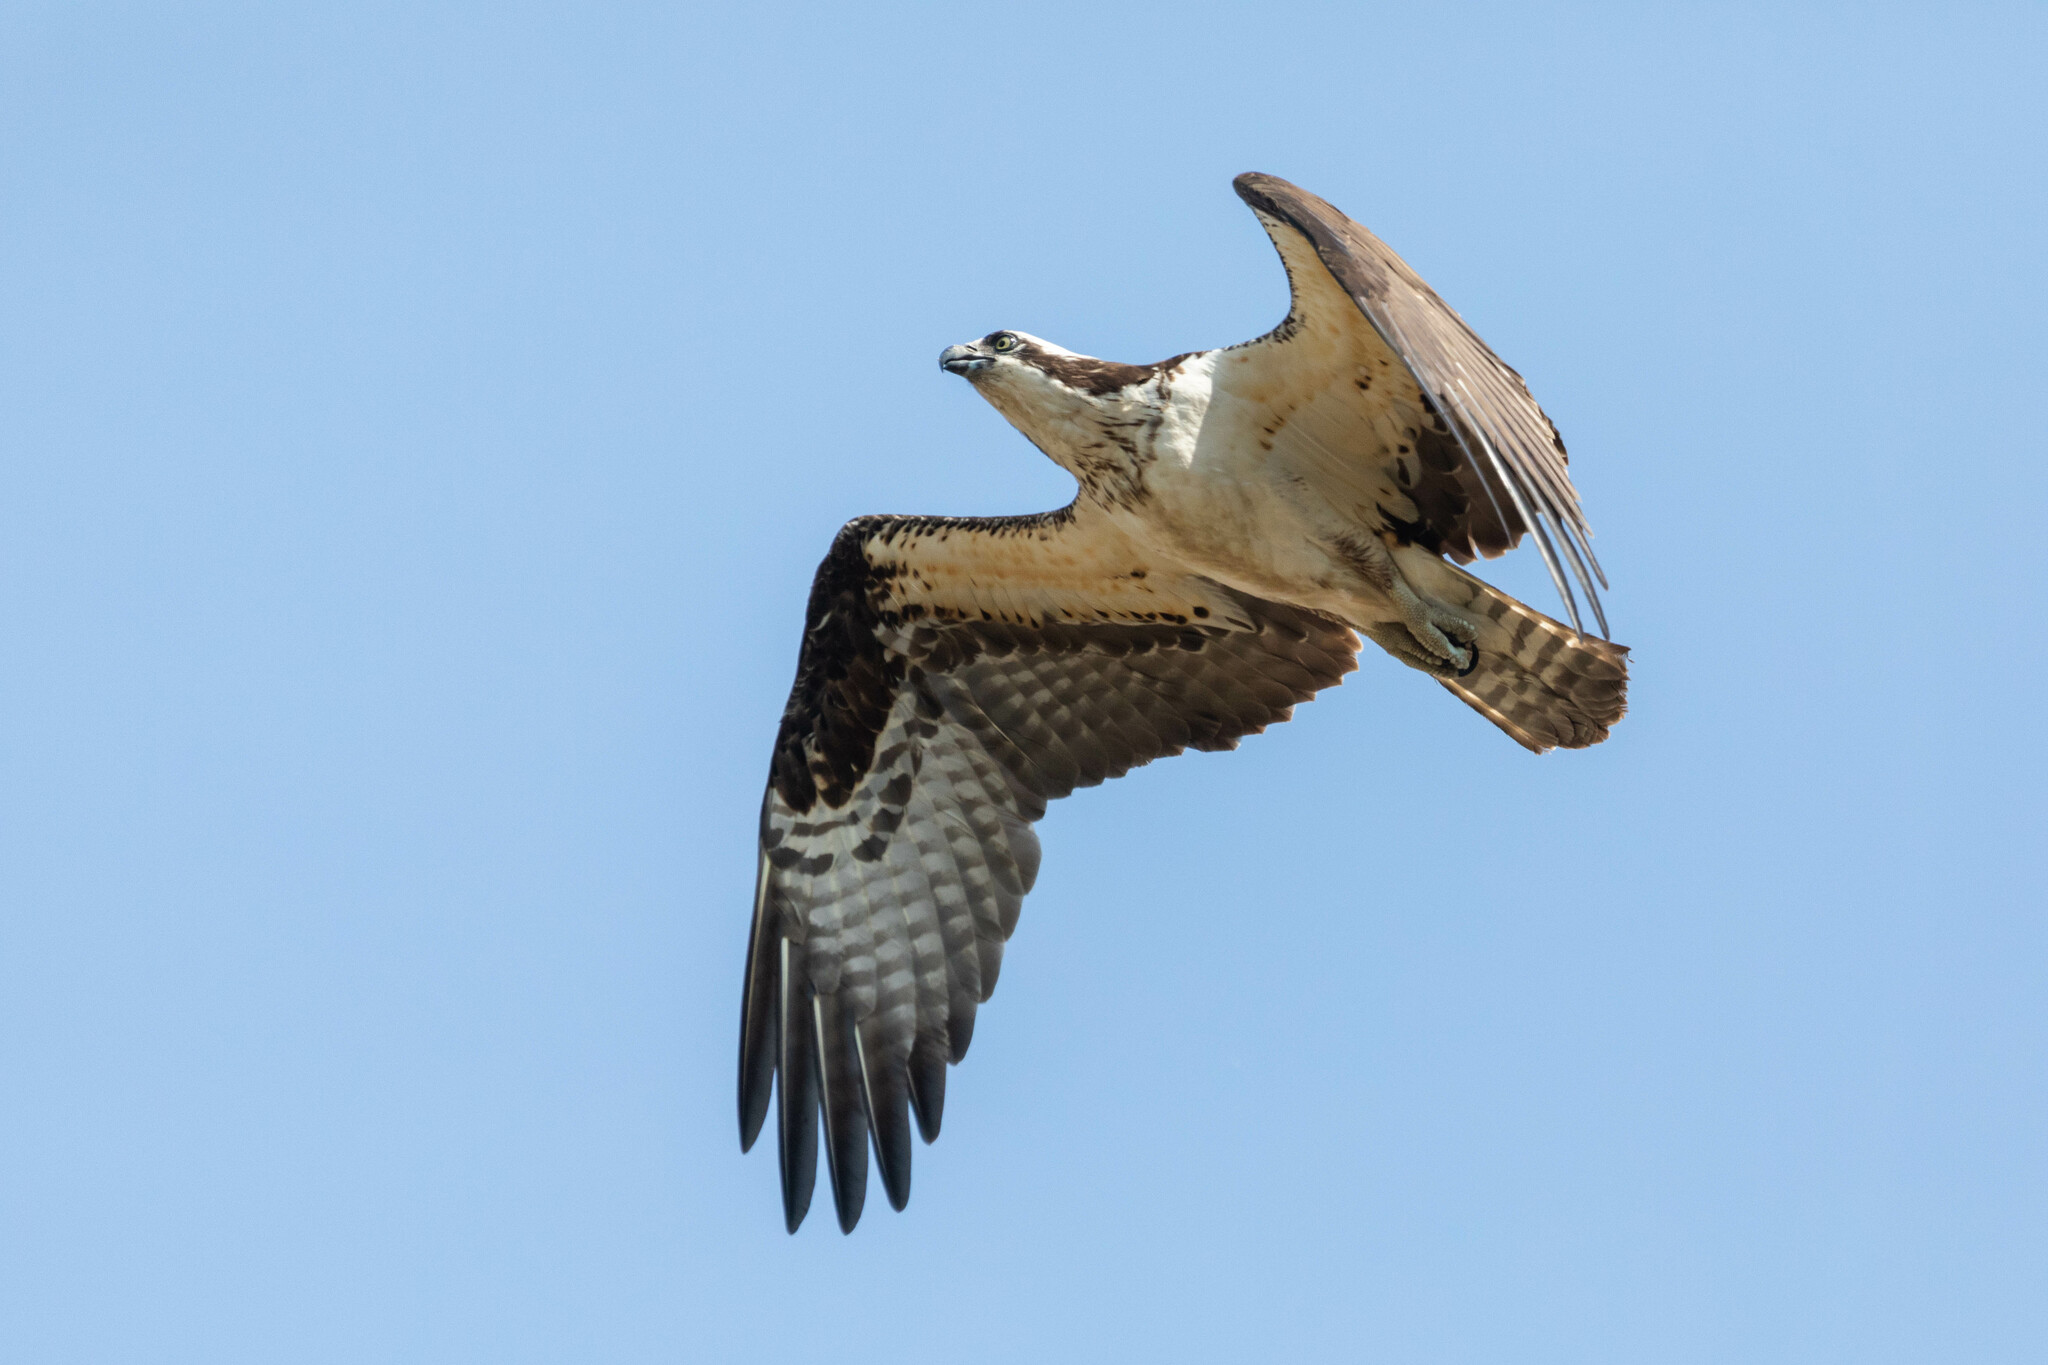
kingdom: Animalia
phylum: Chordata
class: Aves
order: Accipitriformes
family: Pandionidae
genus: Pandion
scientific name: Pandion haliaetus
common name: Osprey
